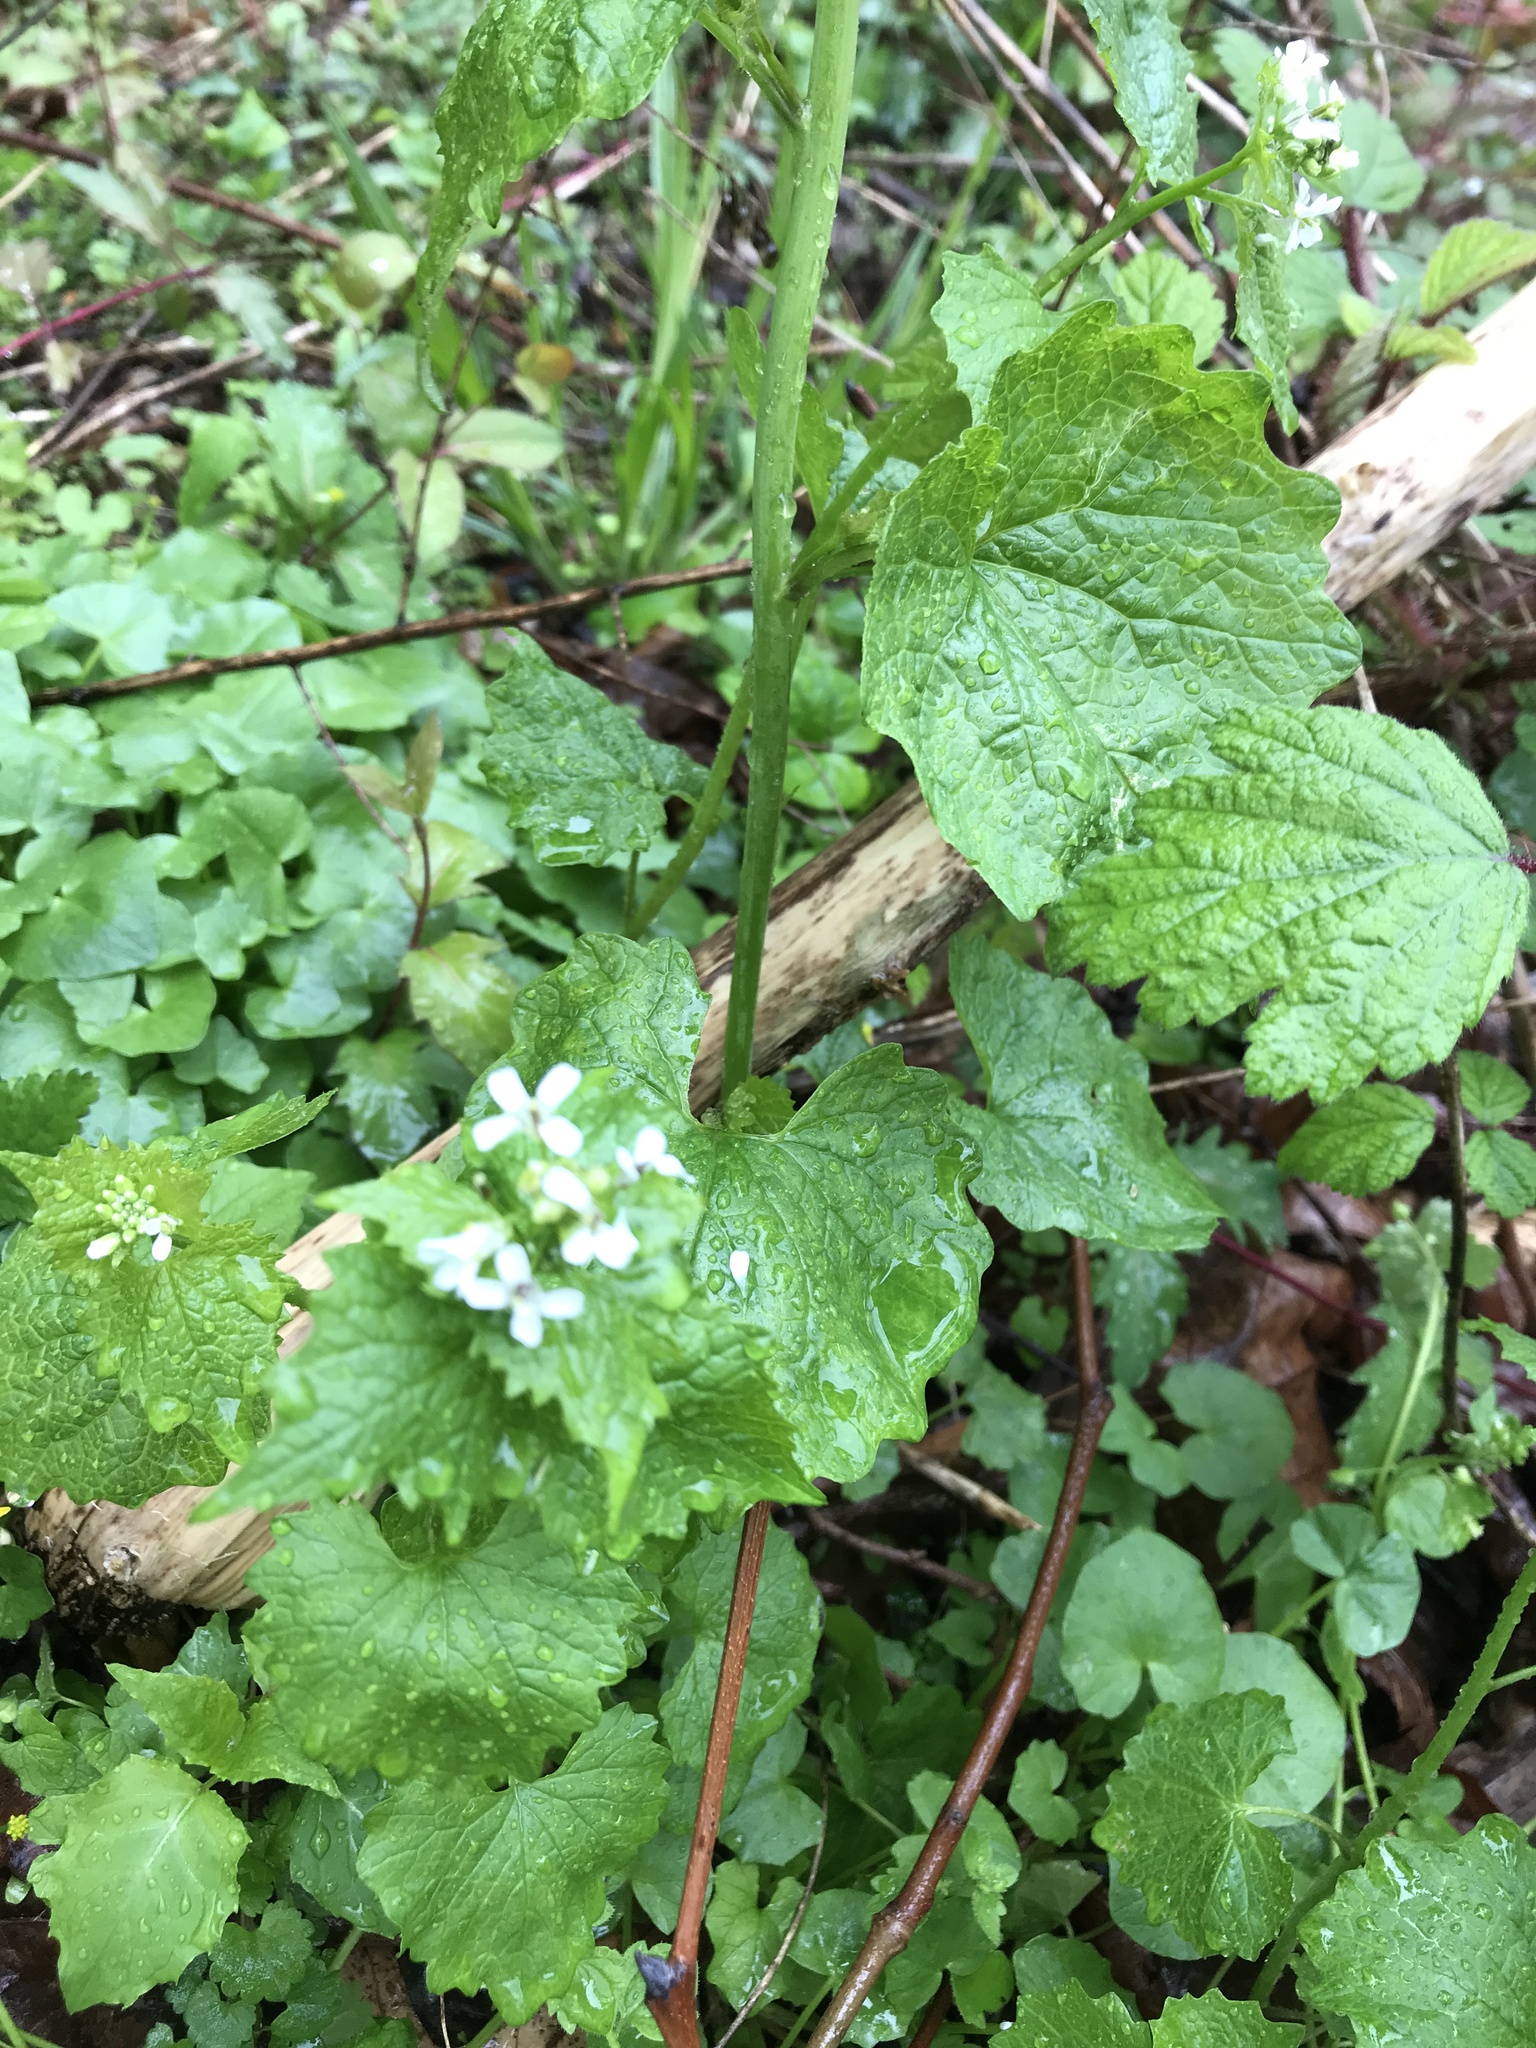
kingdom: Plantae
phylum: Tracheophyta
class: Magnoliopsida
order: Brassicales
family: Brassicaceae
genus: Alliaria
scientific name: Alliaria petiolata
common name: Garlic mustard
